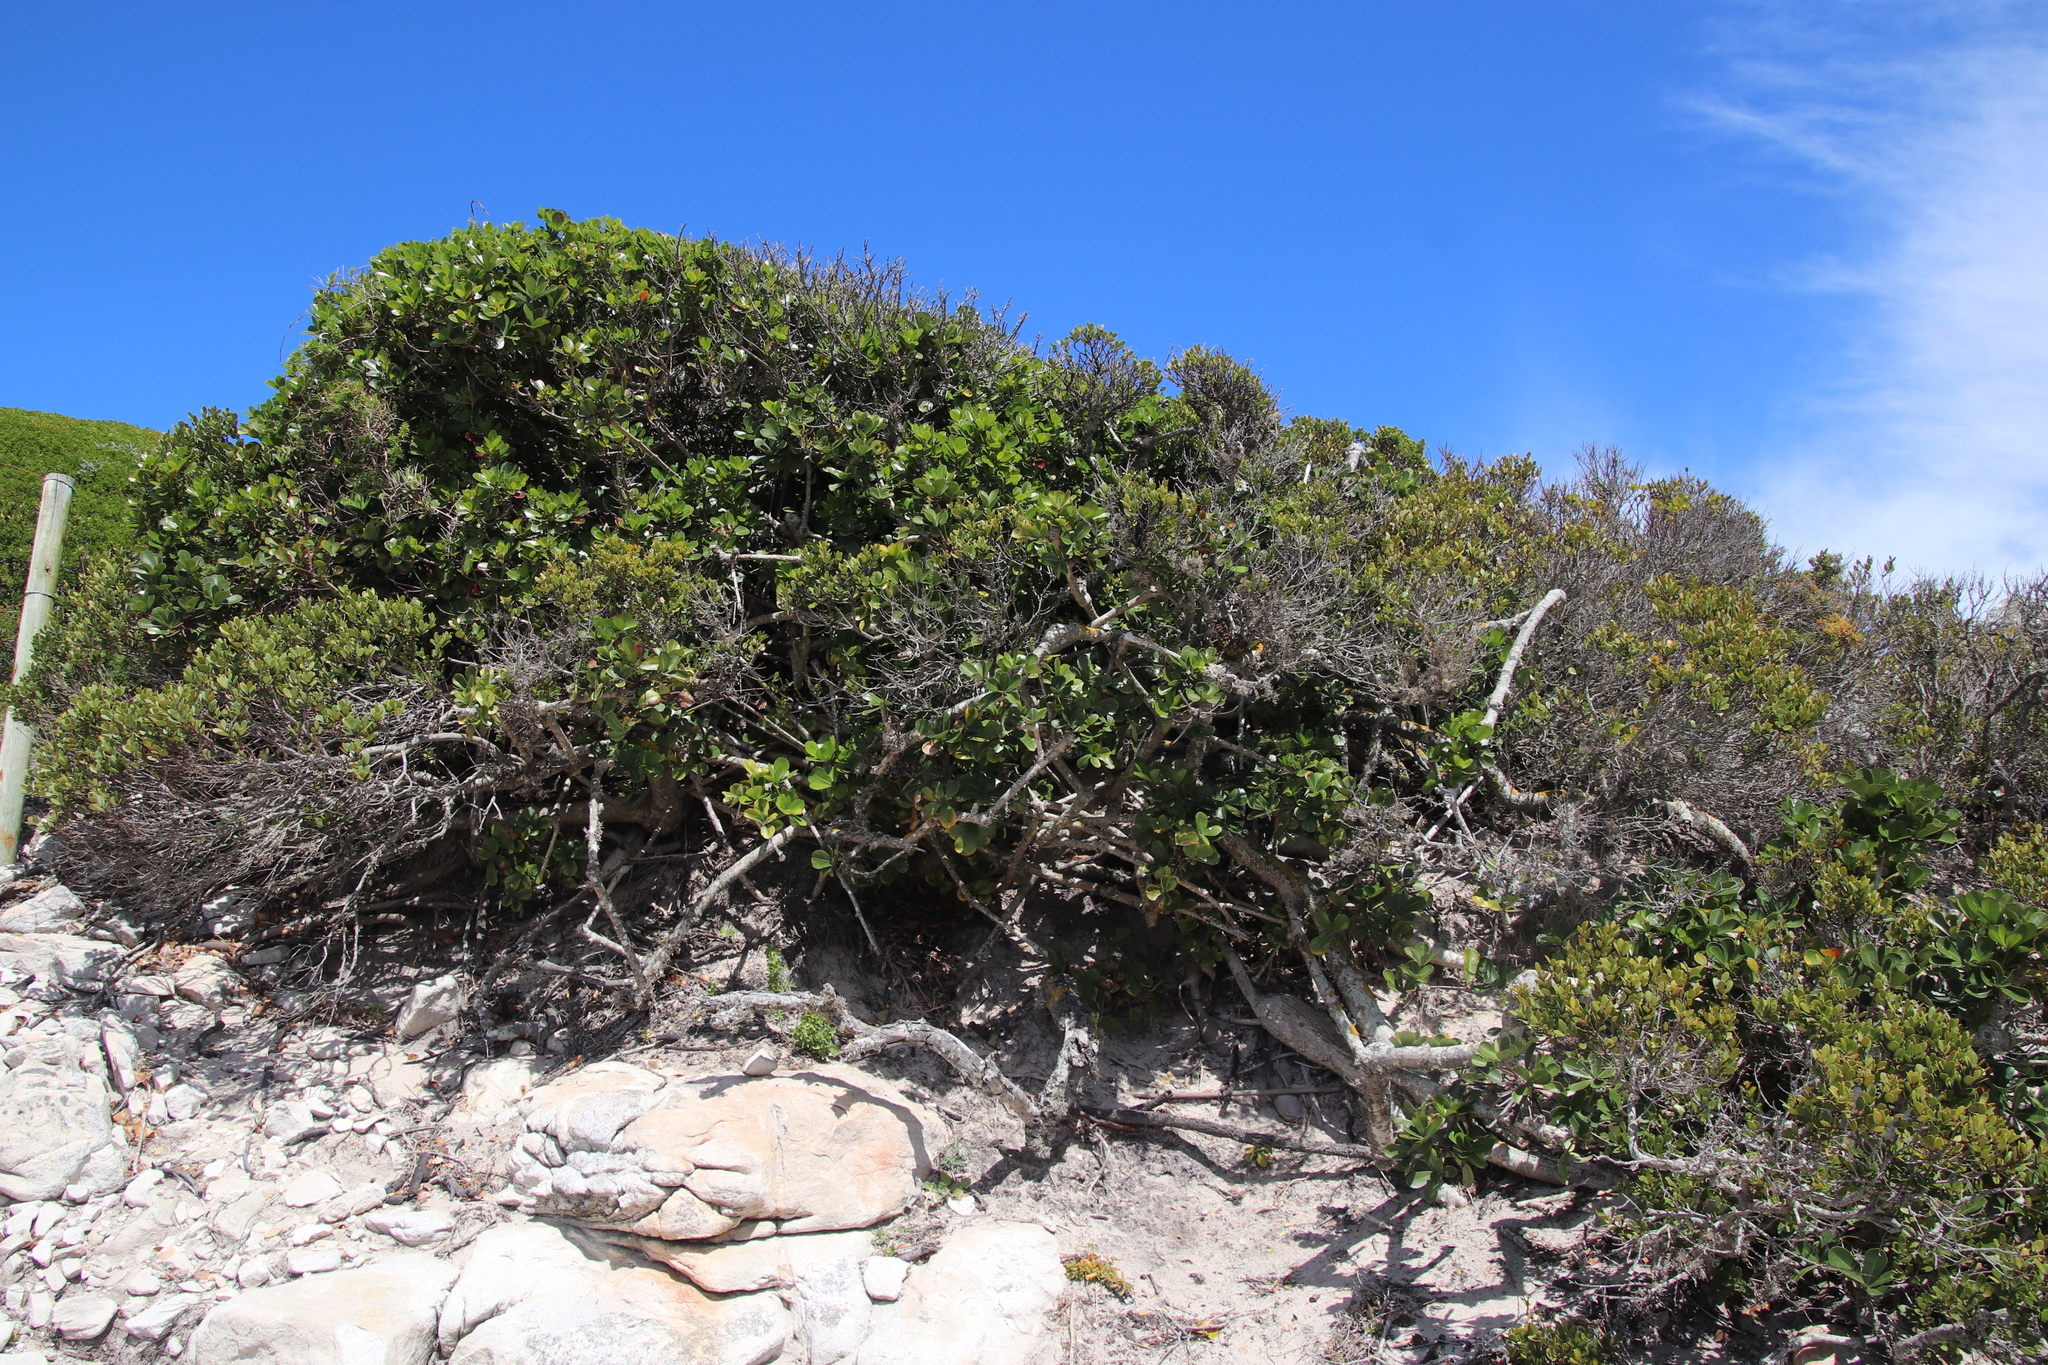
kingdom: Plantae
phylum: Tracheophyta
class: Magnoliopsida
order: Apiales
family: Araliaceae
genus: Cussonia
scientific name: Cussonia thyrsiflora
